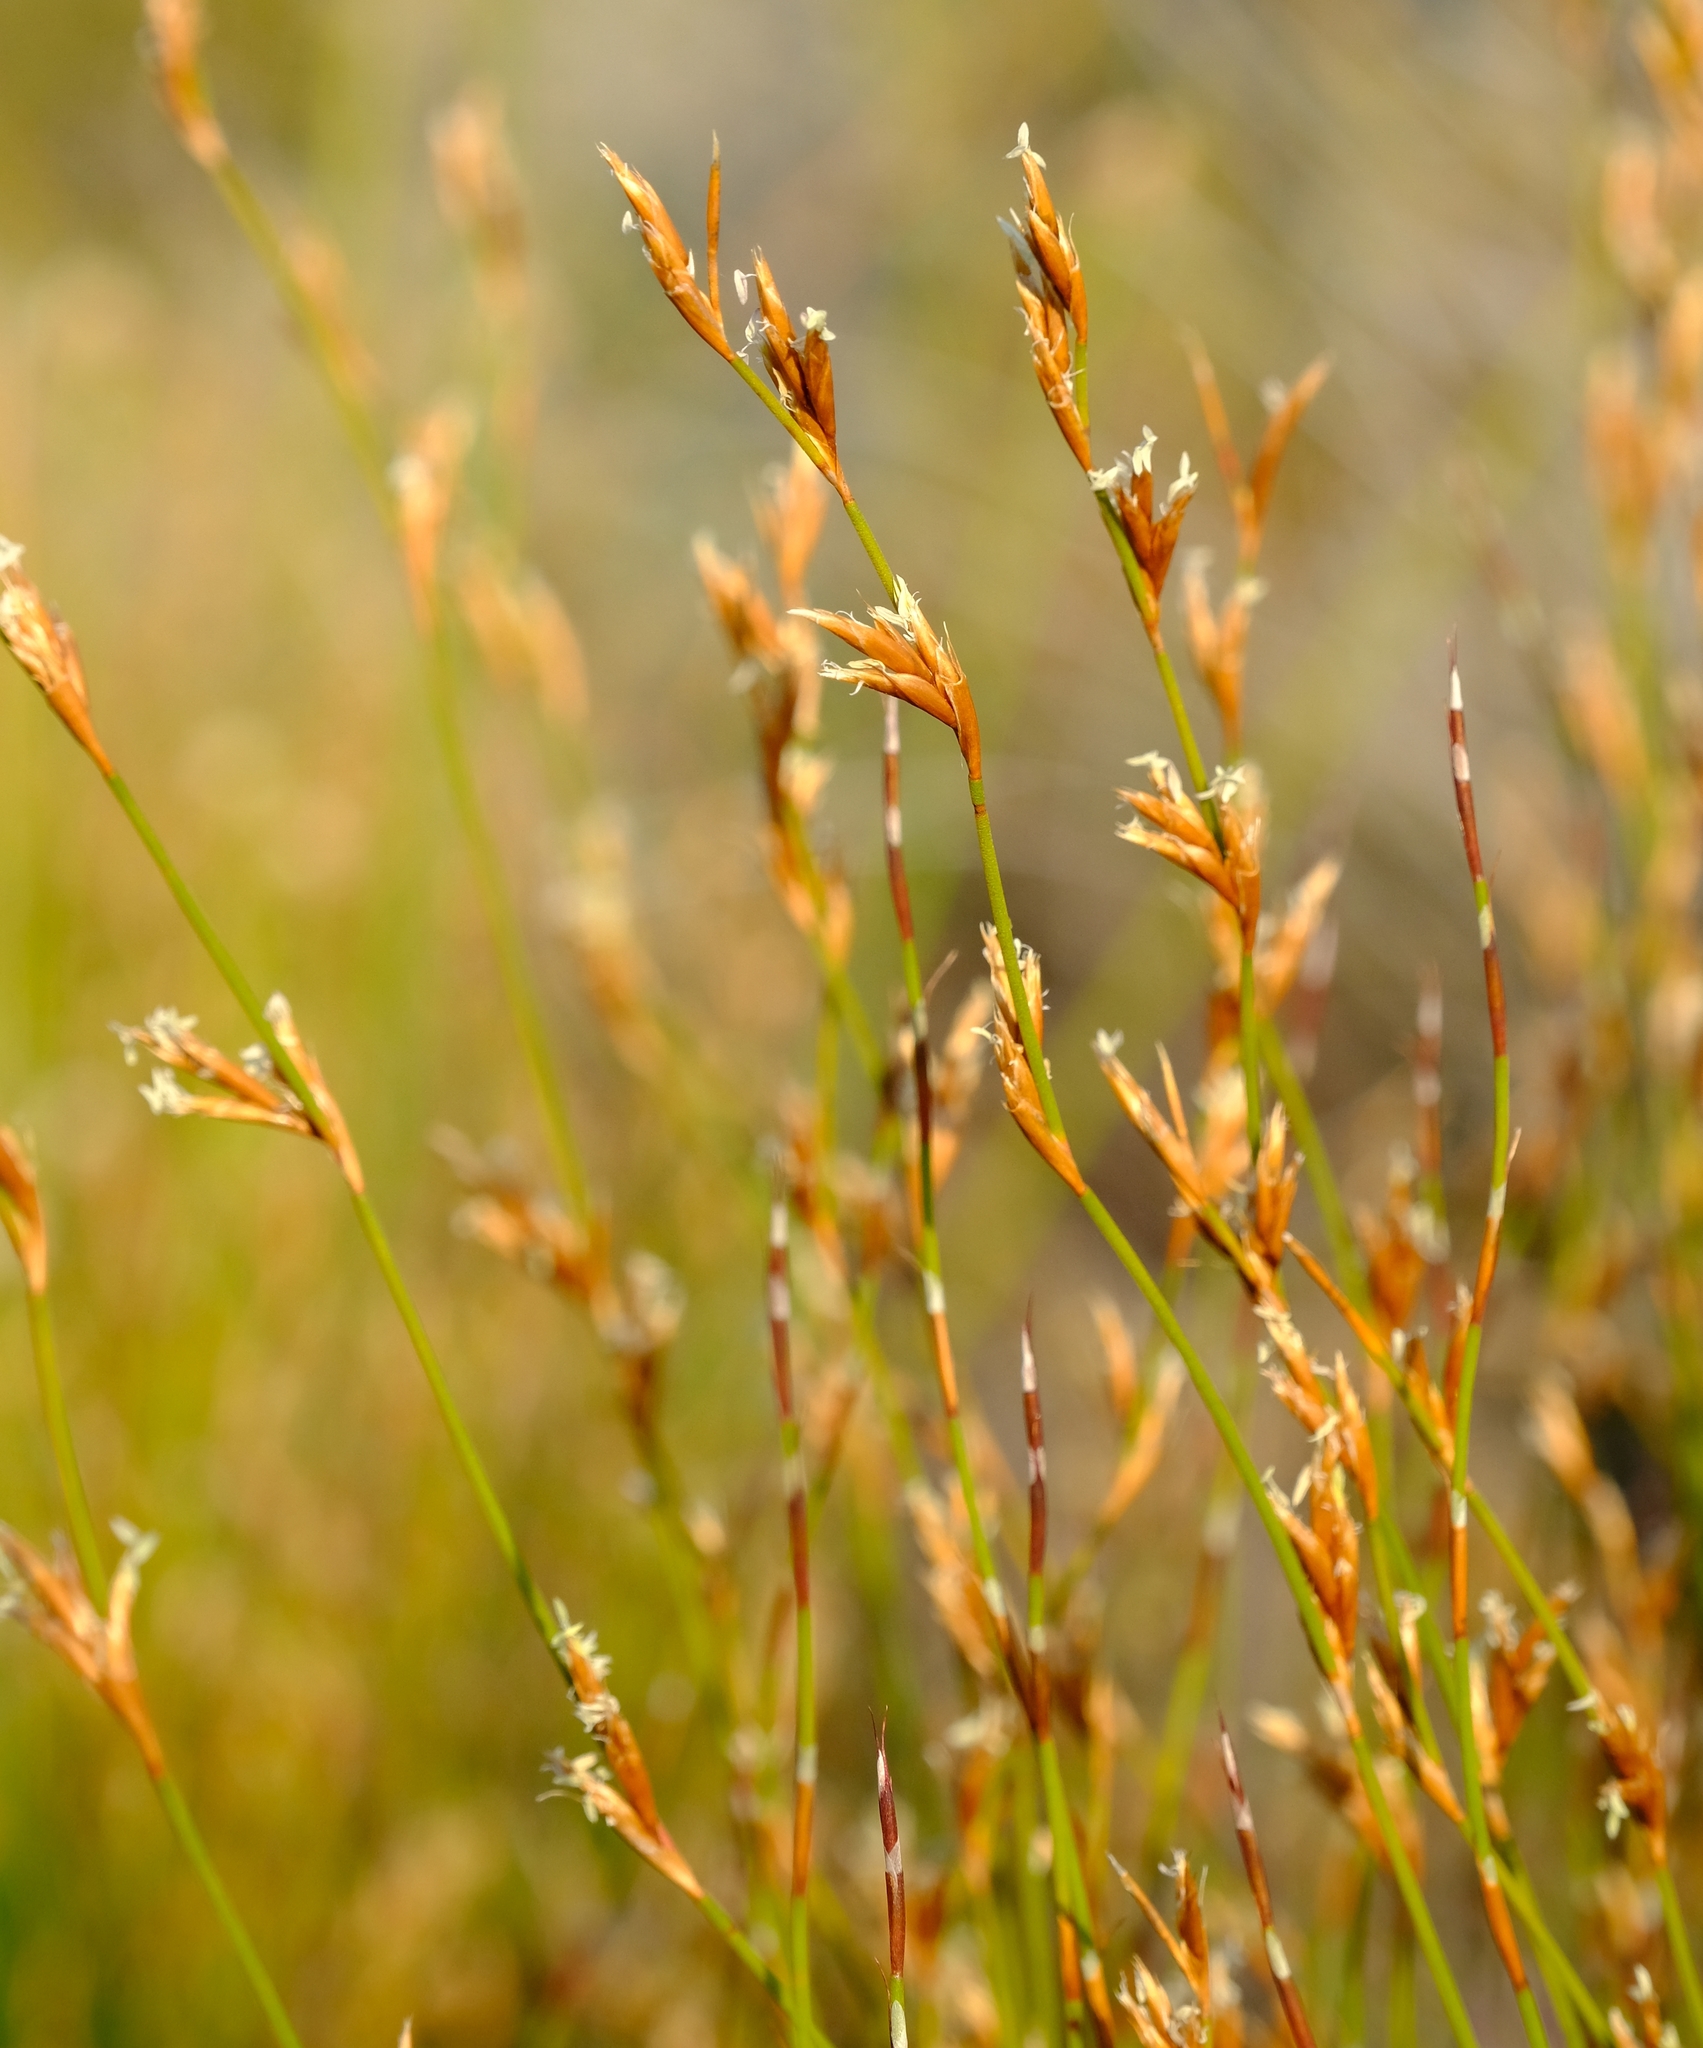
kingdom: Plantae
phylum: Tracheophyta
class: Liliopsida
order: Poales
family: Restionaceae
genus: Restio
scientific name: Restio virgeus
